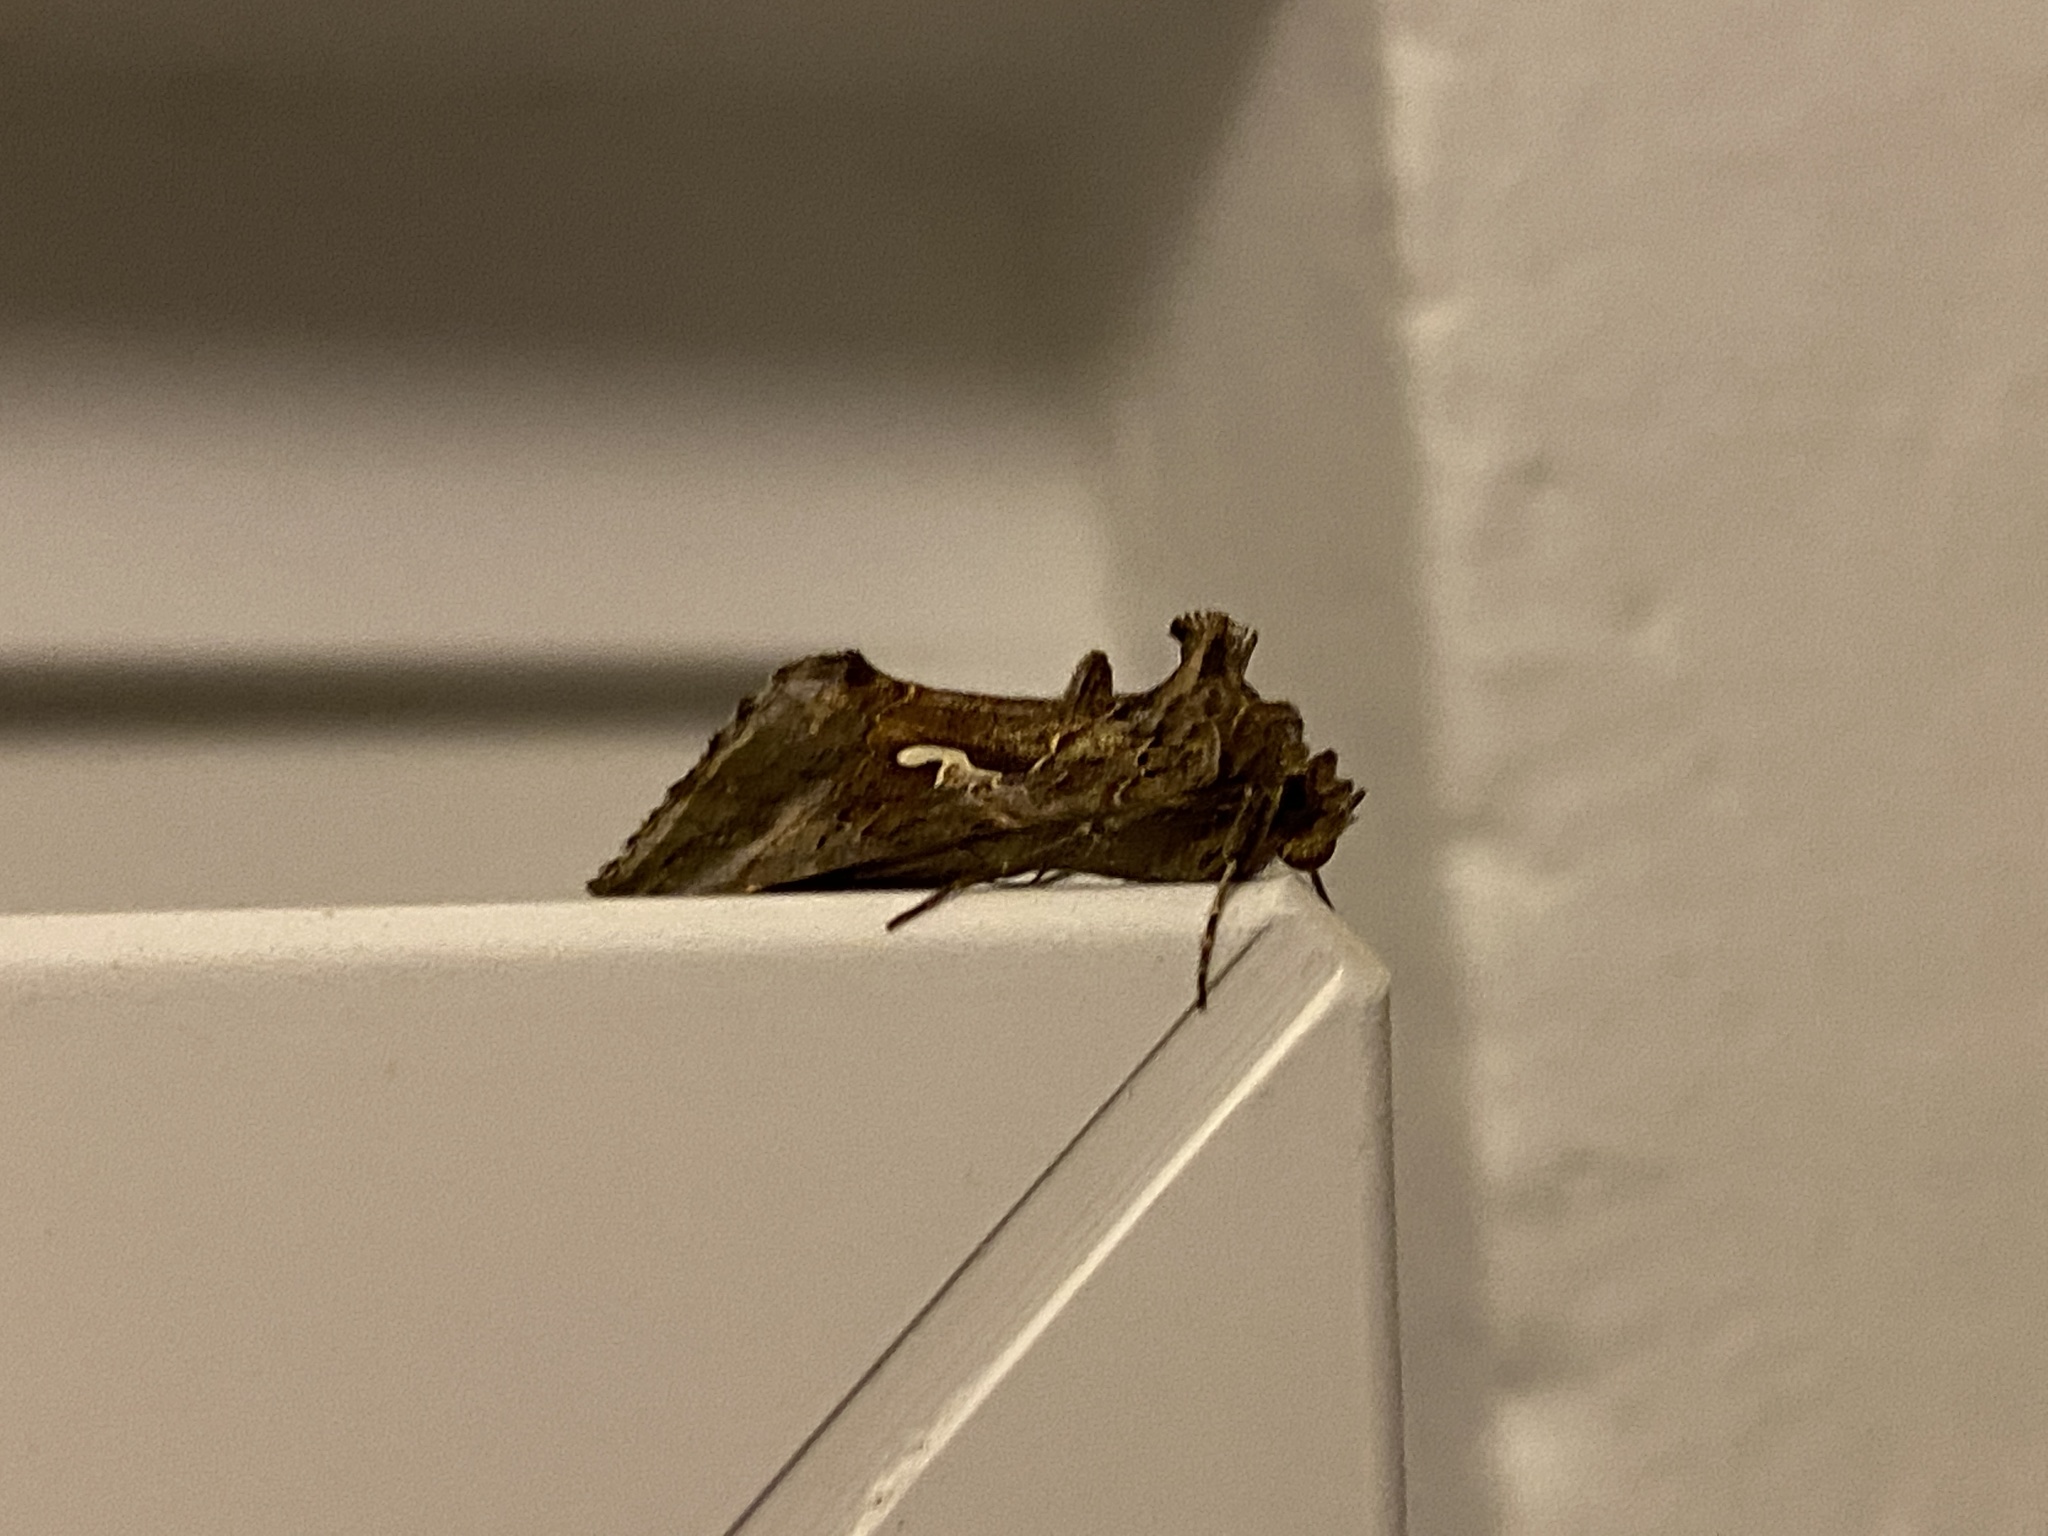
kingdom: Animalia
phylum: Arthropoda
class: Insecta
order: Lepidoptera
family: Noctuidae
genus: Autographa
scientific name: Autographa gamma
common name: Silver y
